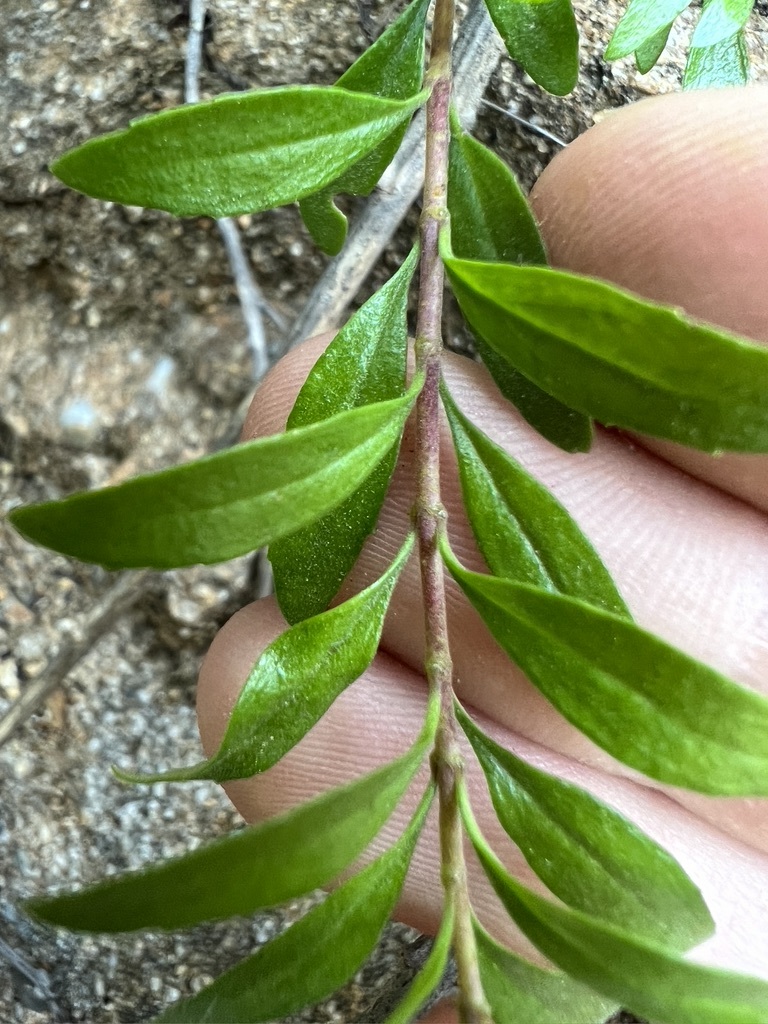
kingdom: Plantae
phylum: Tracheophyta
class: Magnoliopsida
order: Lamiales
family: Plantaginaceae
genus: Keckiella
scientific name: Keckiella antirrhinoides
